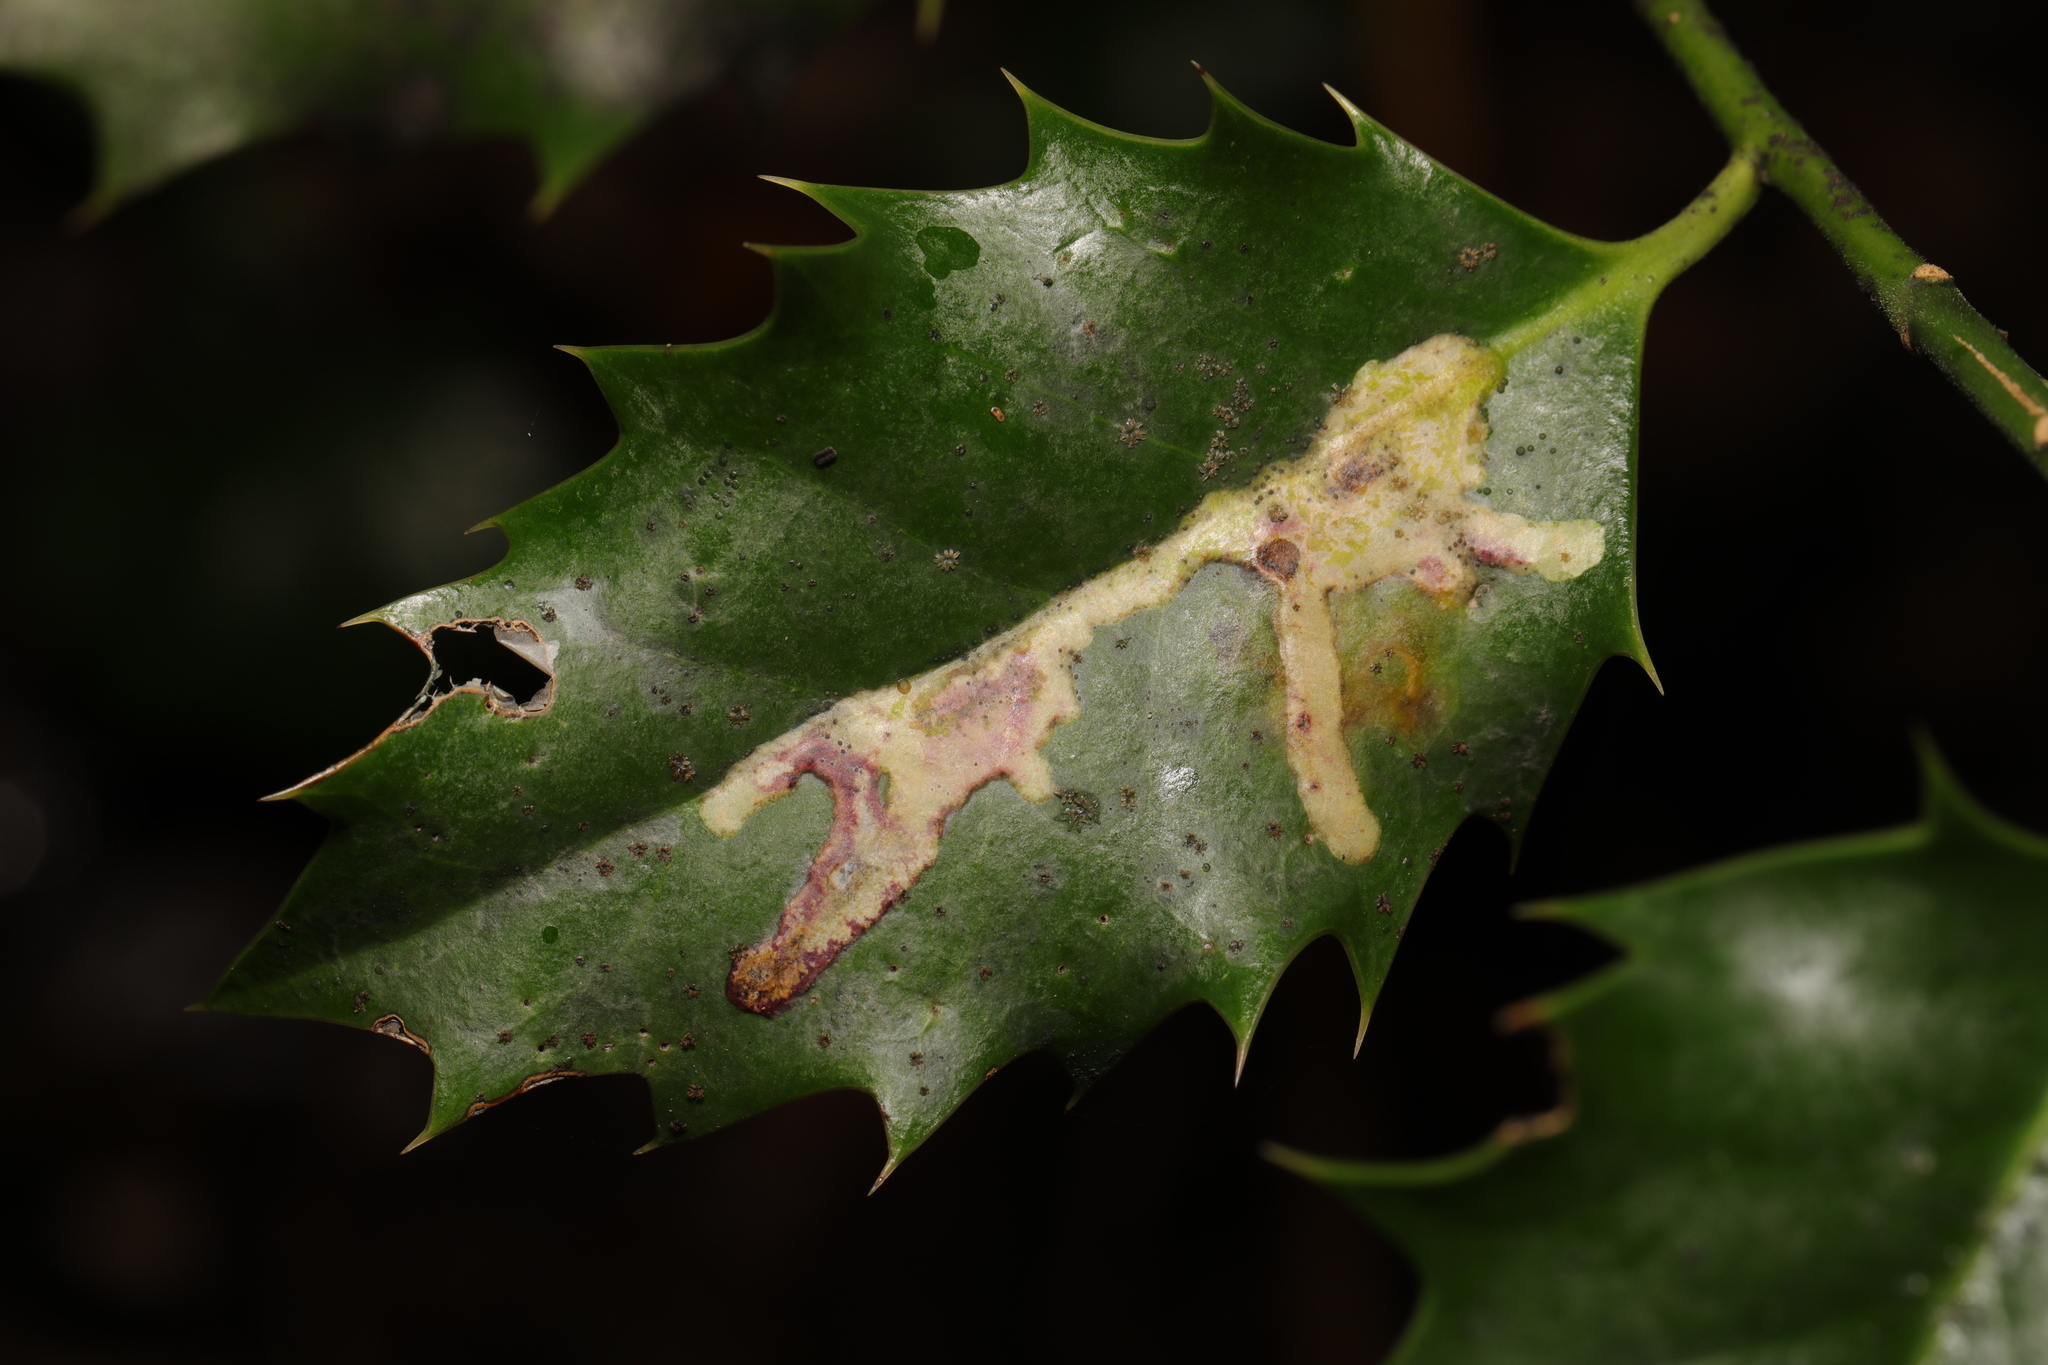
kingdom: Animalia
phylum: Arthropoda
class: Insecta
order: Diptera
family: Agromyzidae
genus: Phytomyza
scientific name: Phytomyza ilicis
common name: Holly leafminer
